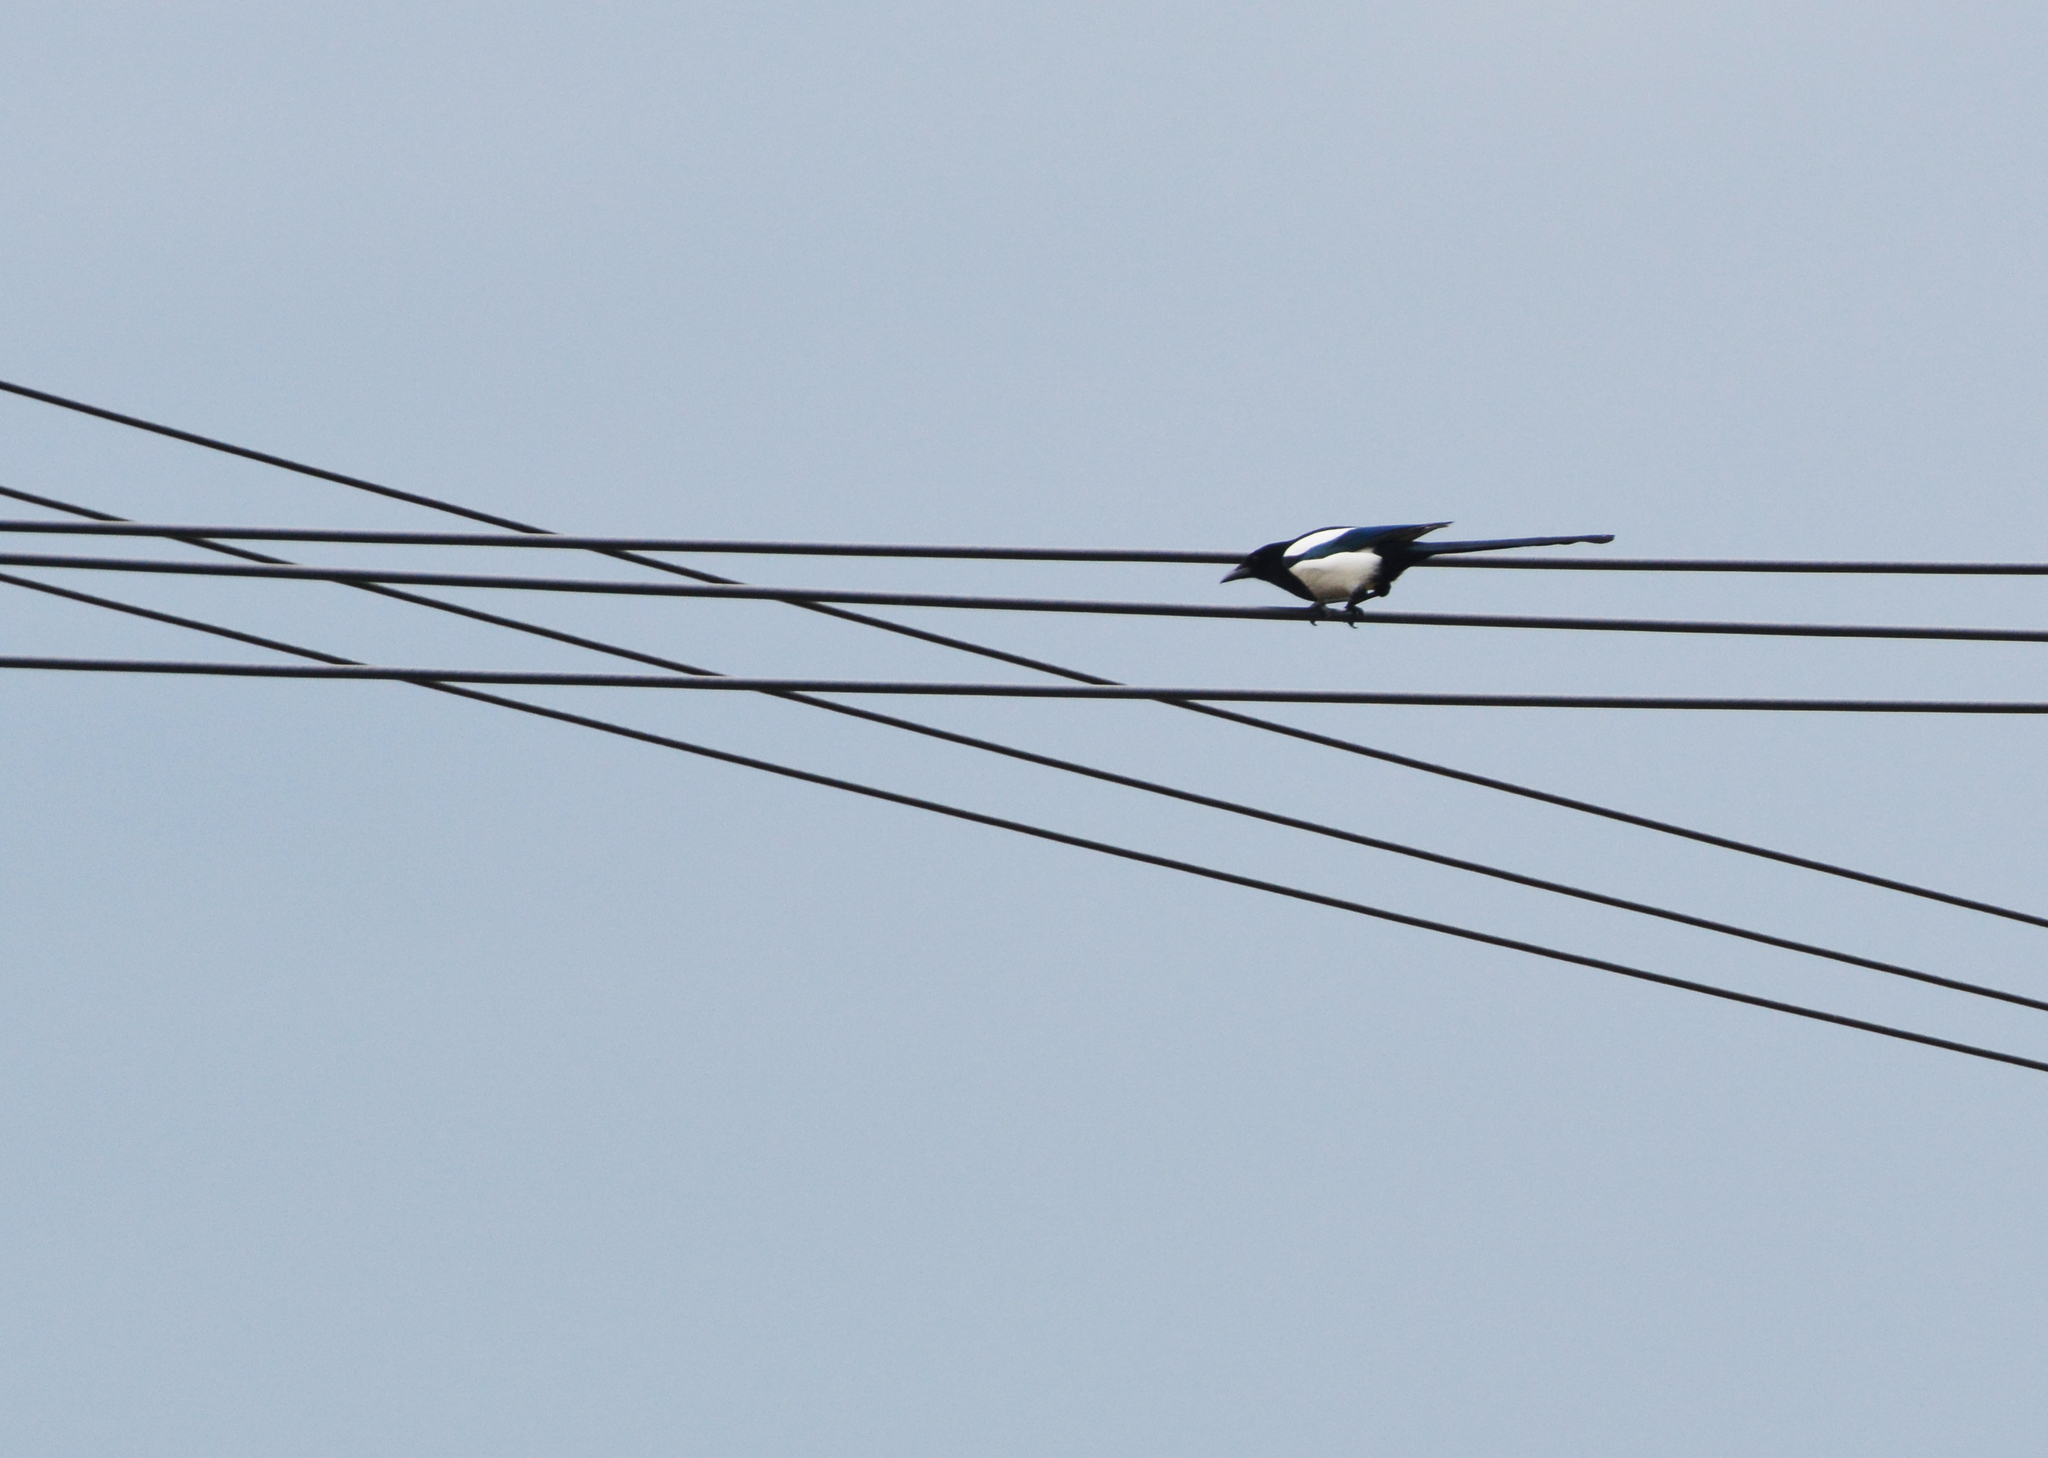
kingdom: Animalia
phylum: Chordata
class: Aves
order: Passeriformes
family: Corvidae
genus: Pica
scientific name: Pica pica
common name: Eurasian magpie
